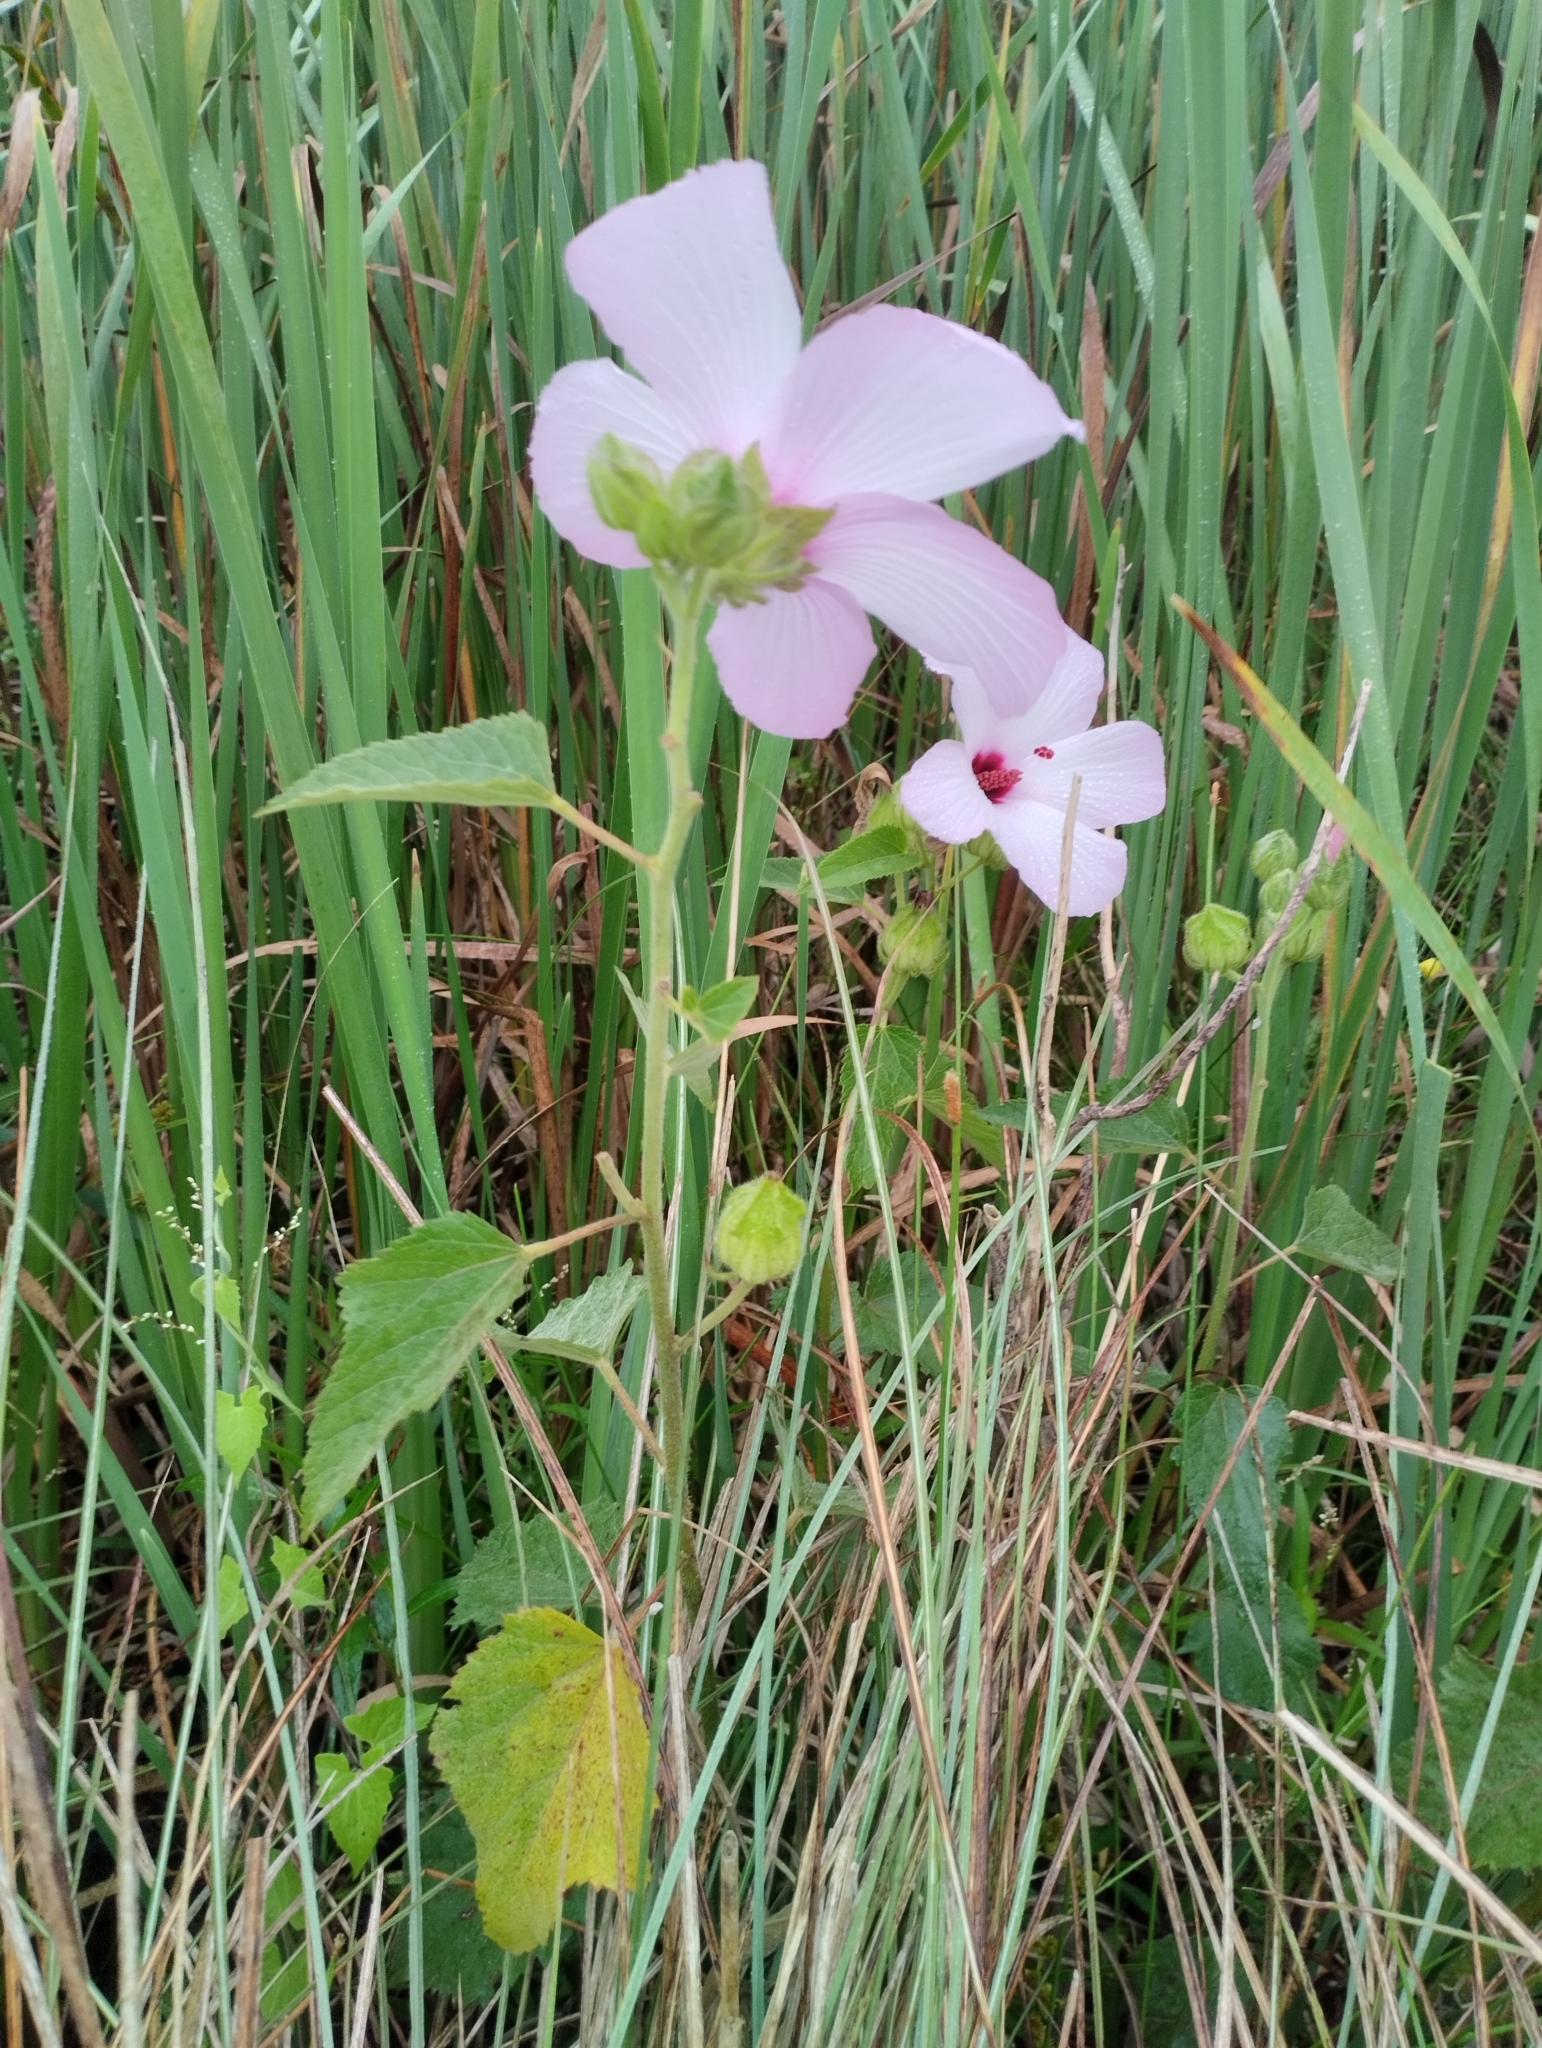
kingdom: Plantae
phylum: Tracheophyta
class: Magnoliopsida
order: Malvales
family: Malvaceae
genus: Hibiscus
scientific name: Hibiscus striatus
